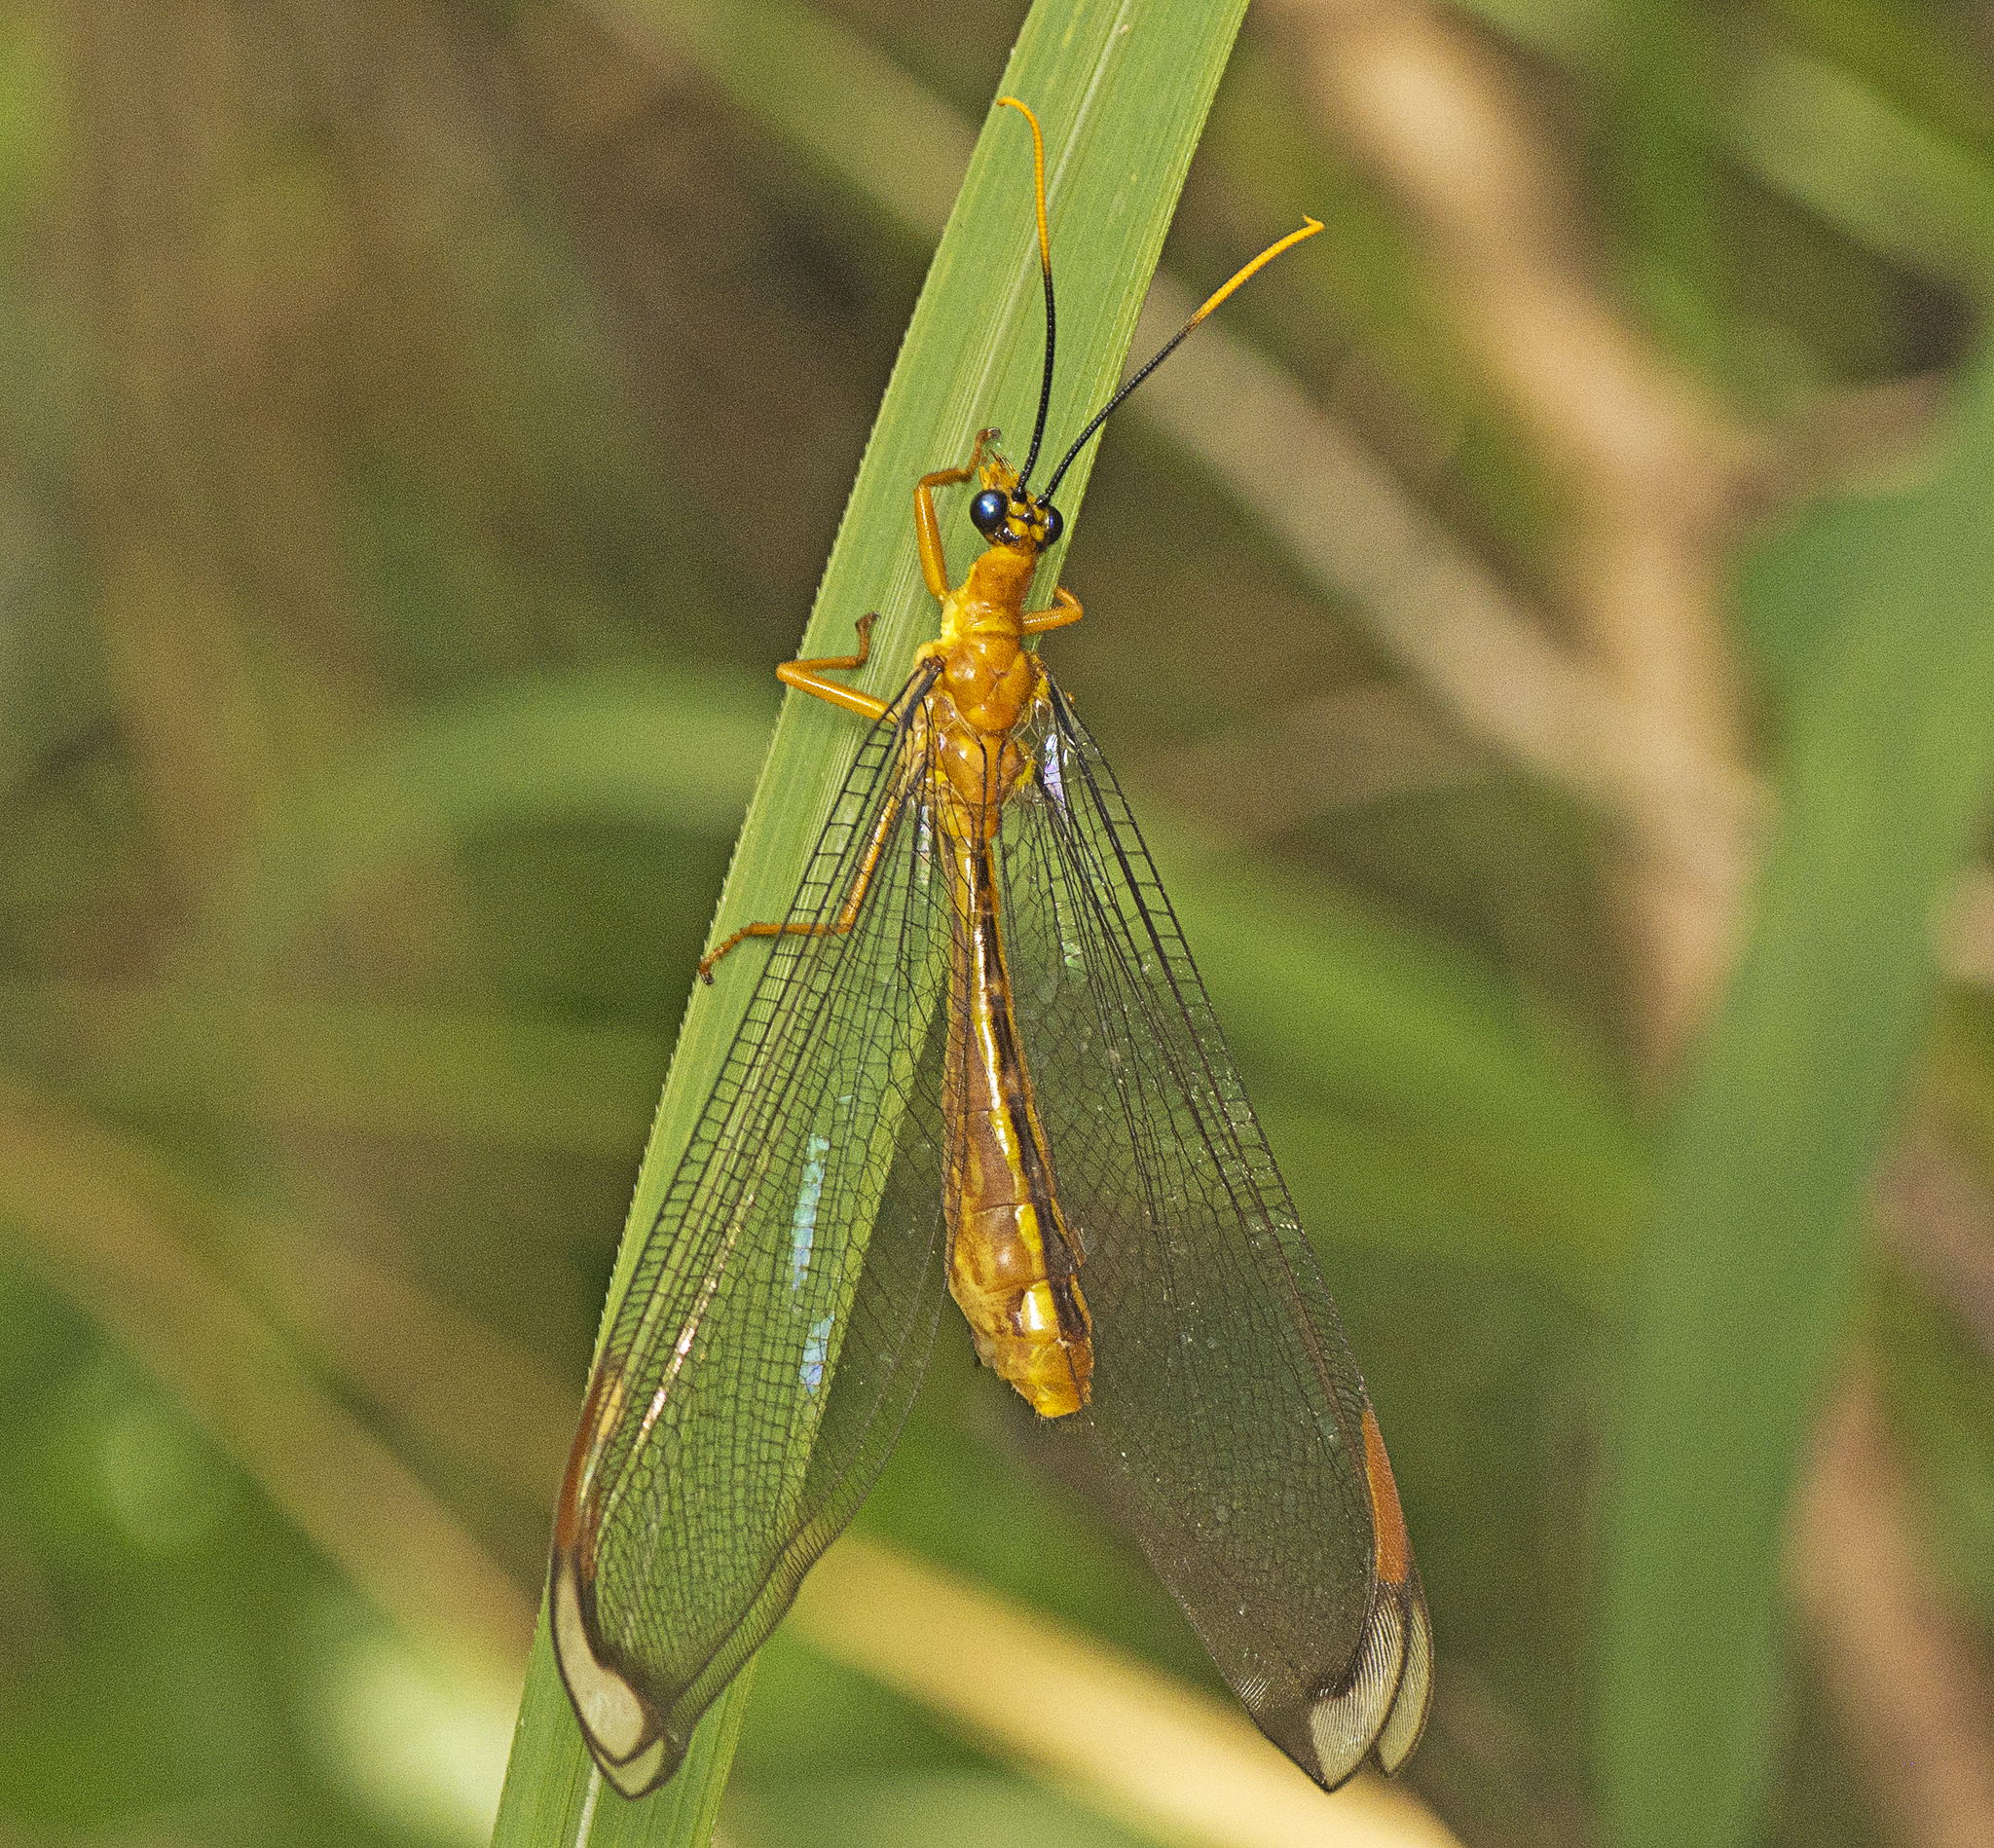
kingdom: Animalia
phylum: Arthropoda
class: Insecta
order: Neuroptera
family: Nymphidae
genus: Nymphes
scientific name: Nymphes myrmeleonoides
